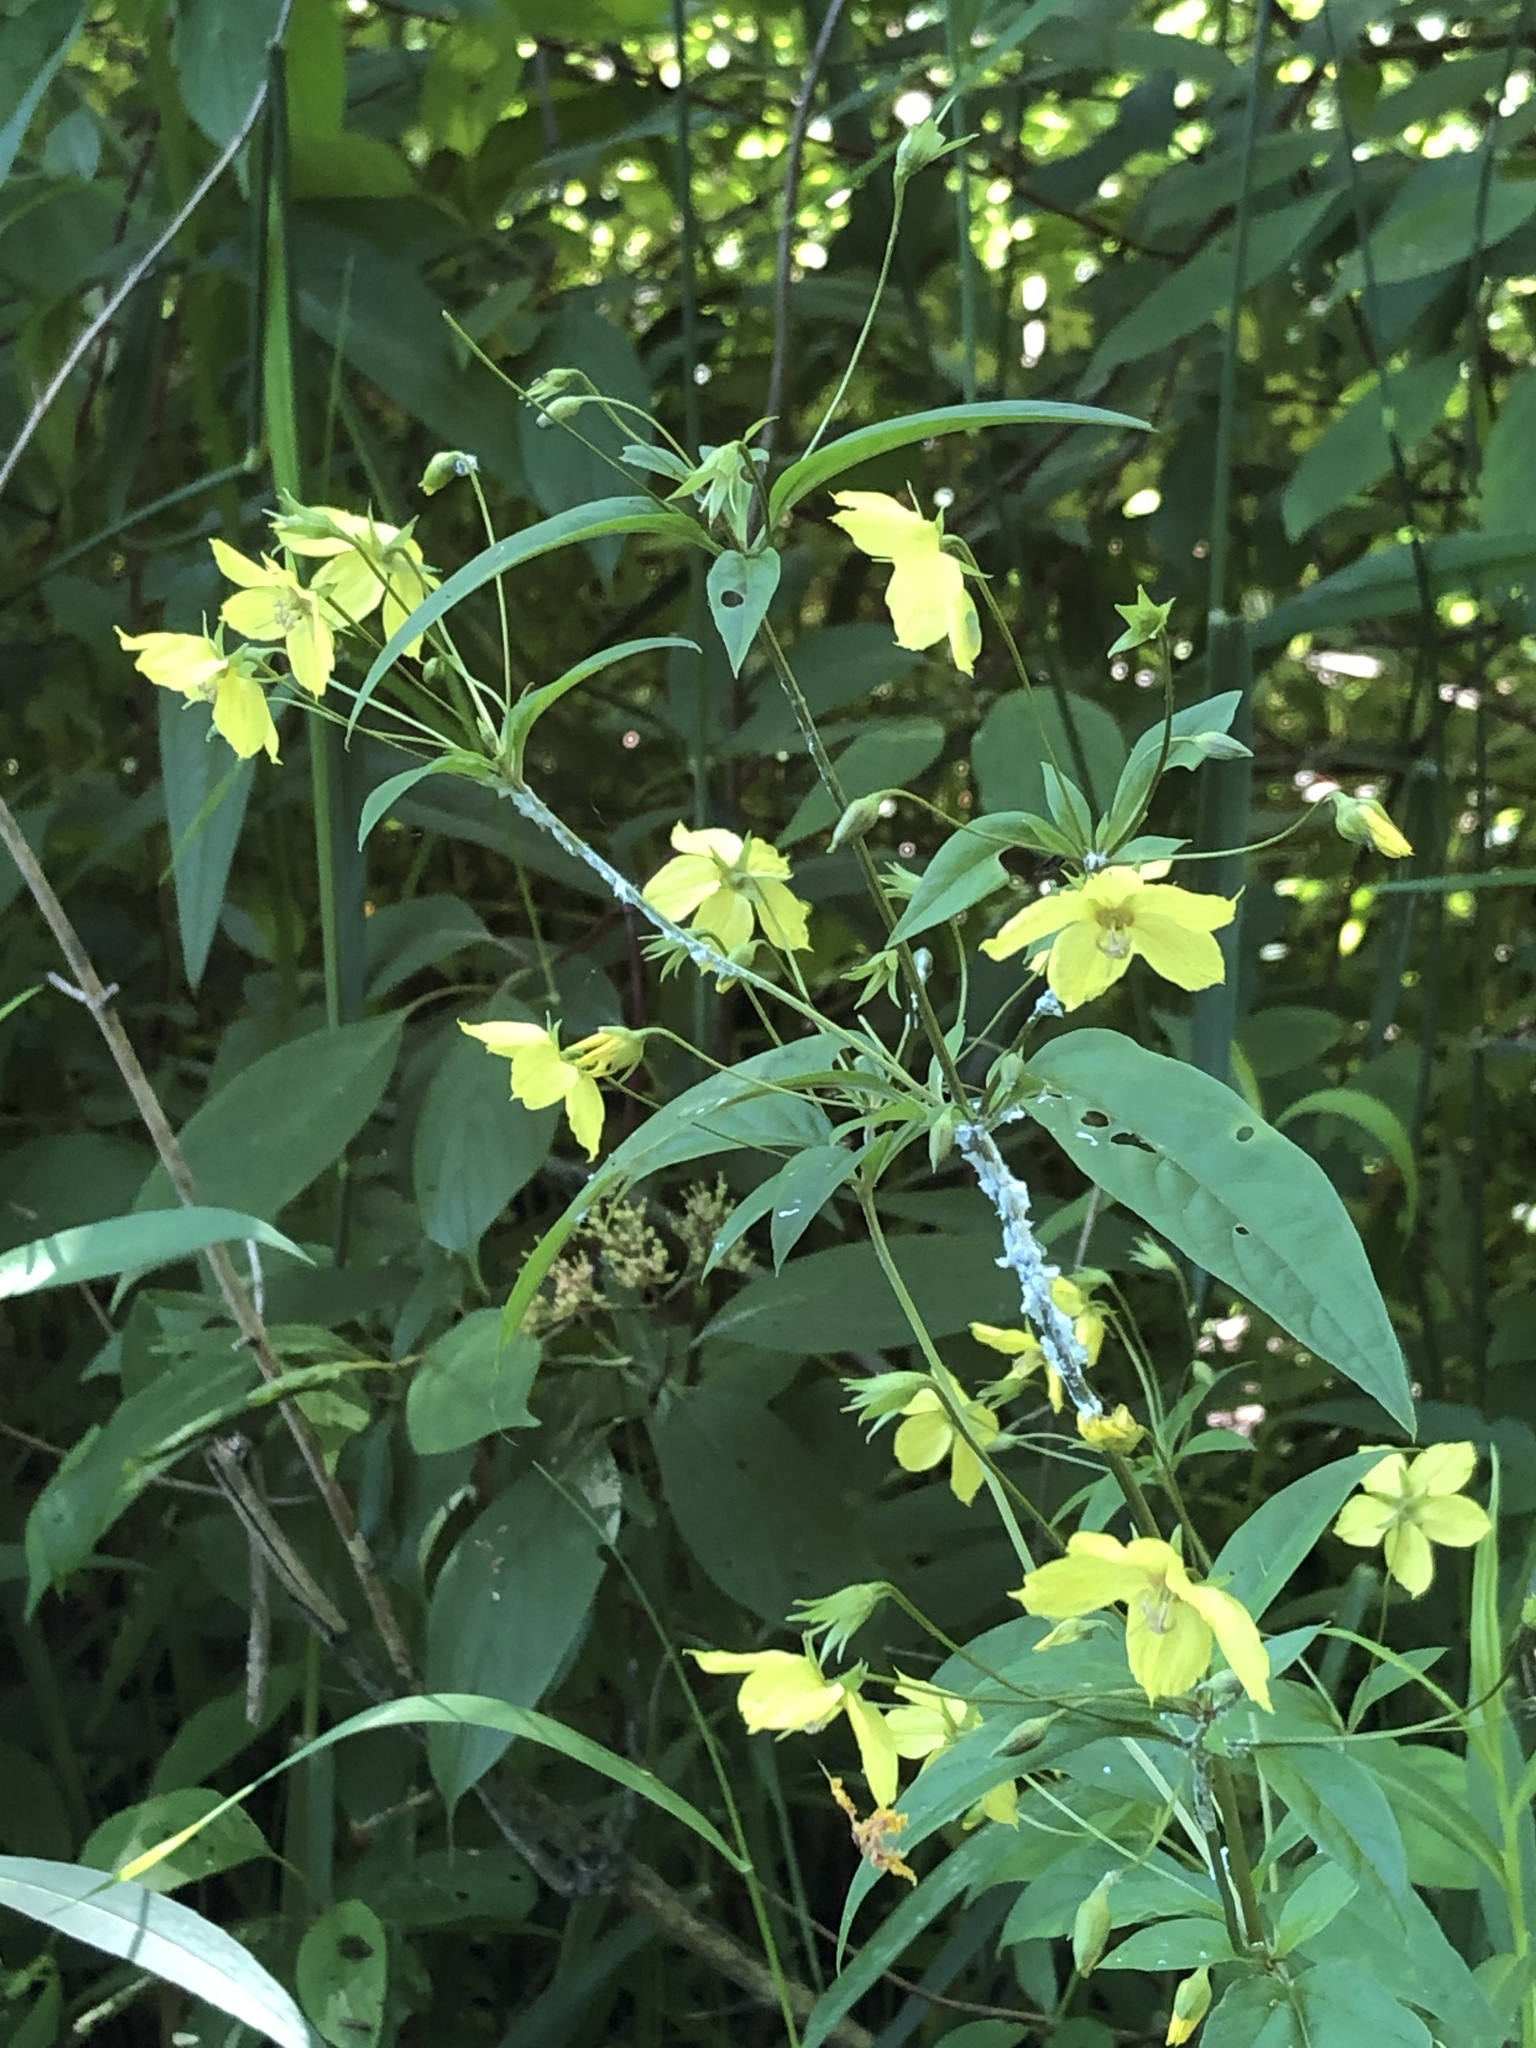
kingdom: Plantae
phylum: Tracheophyta
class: Magnoliopsida
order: Ericales
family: Primulaceae
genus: Lysimachia
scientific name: Lysimachia ciliata
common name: Fringed loosestrife
